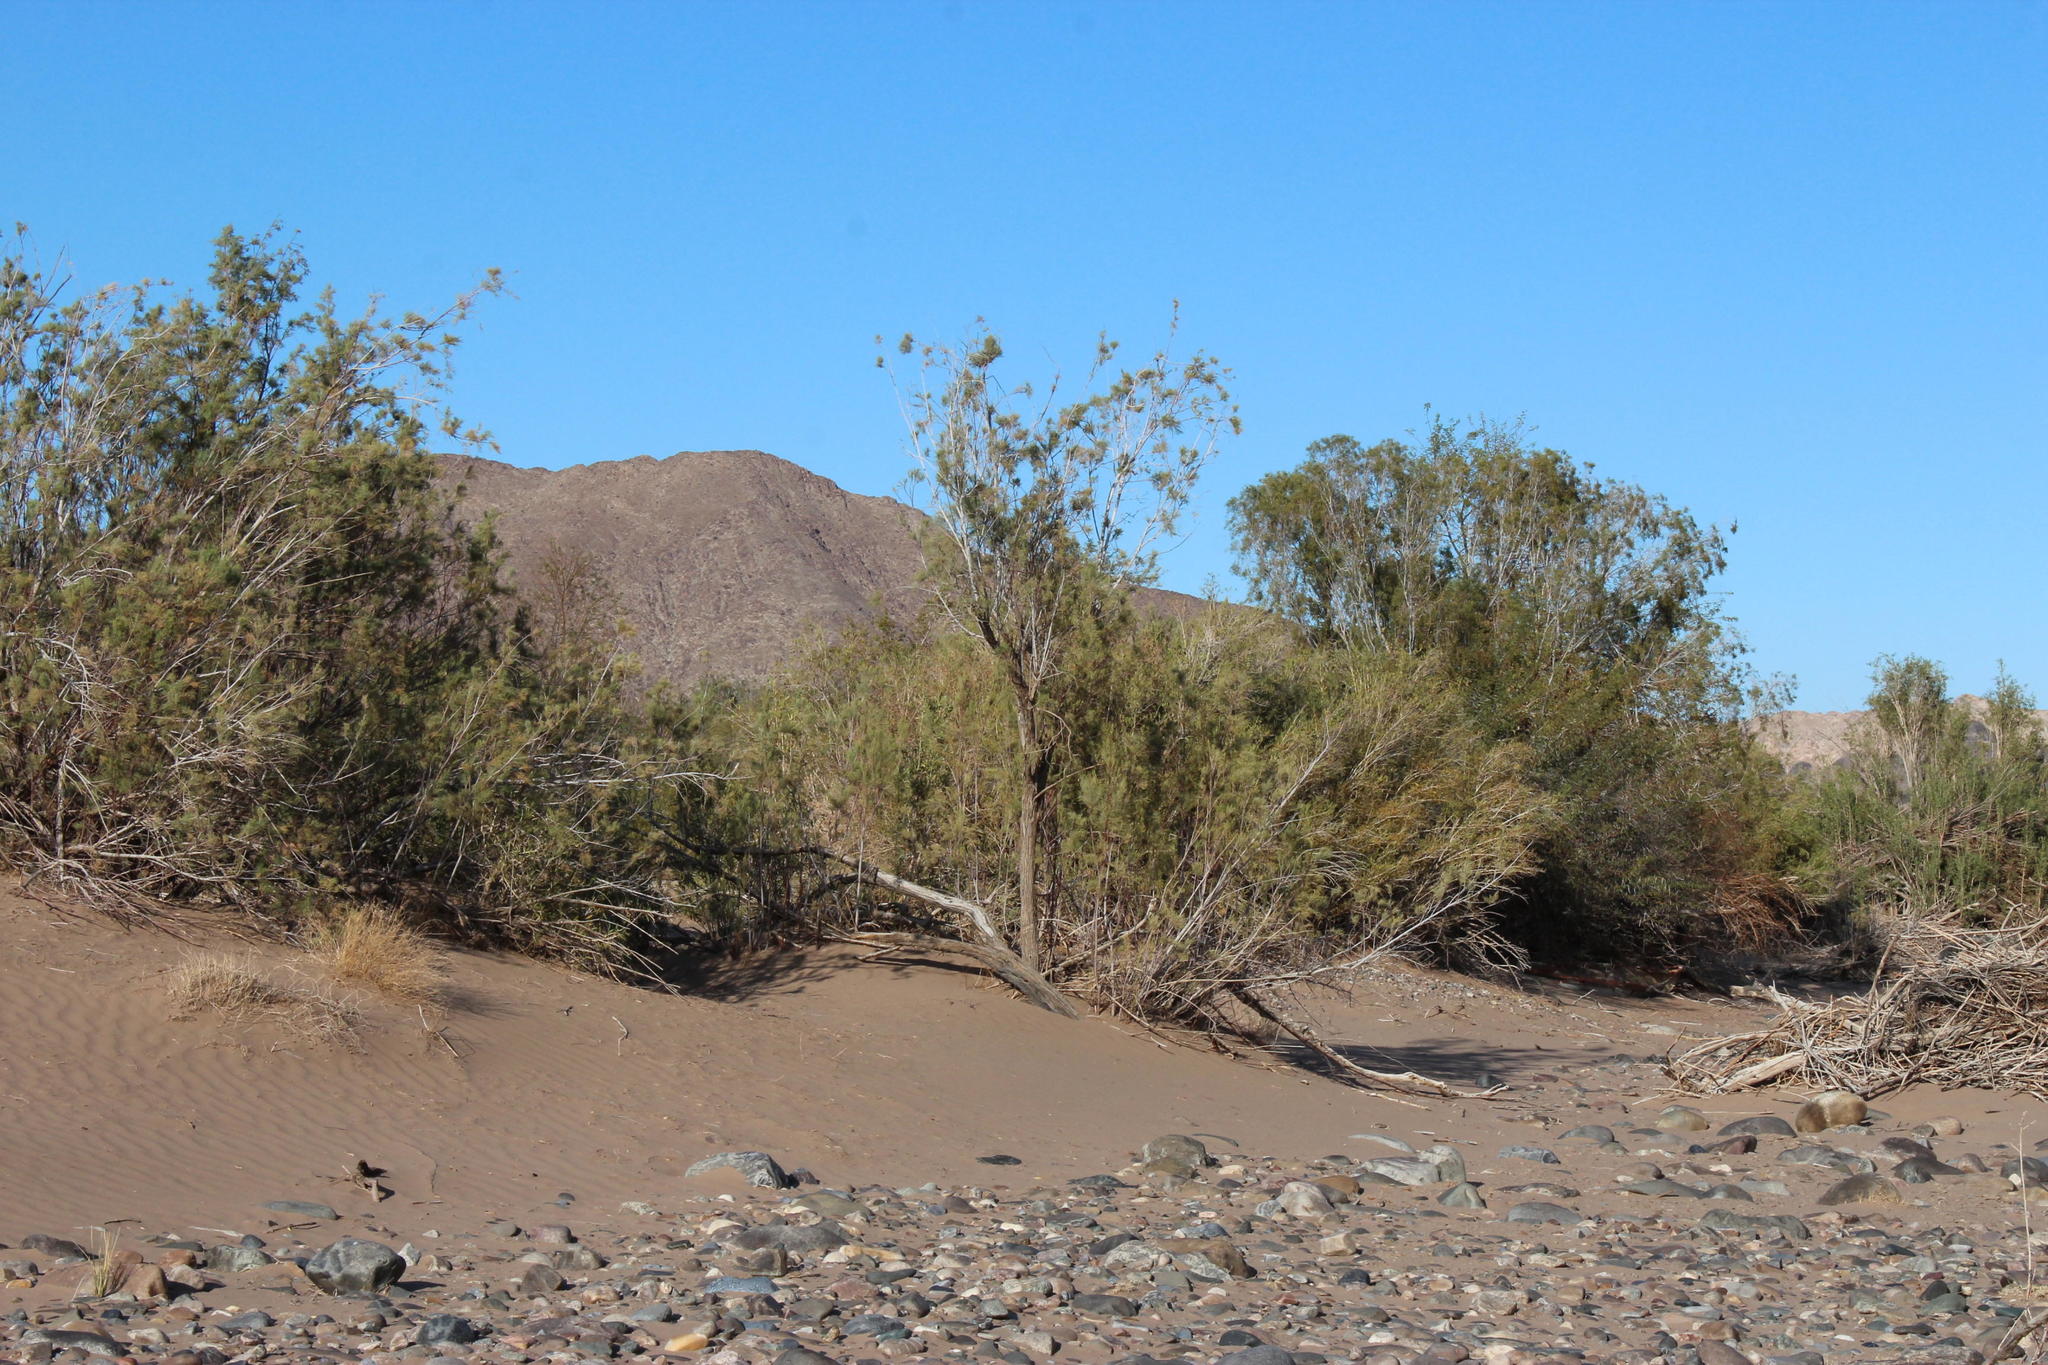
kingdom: Plantae
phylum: Tracheophyta
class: Magnoliopsida
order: Caryophyllales
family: Tamaricaceae
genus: Tamarix
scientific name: Tamarix usneoides
